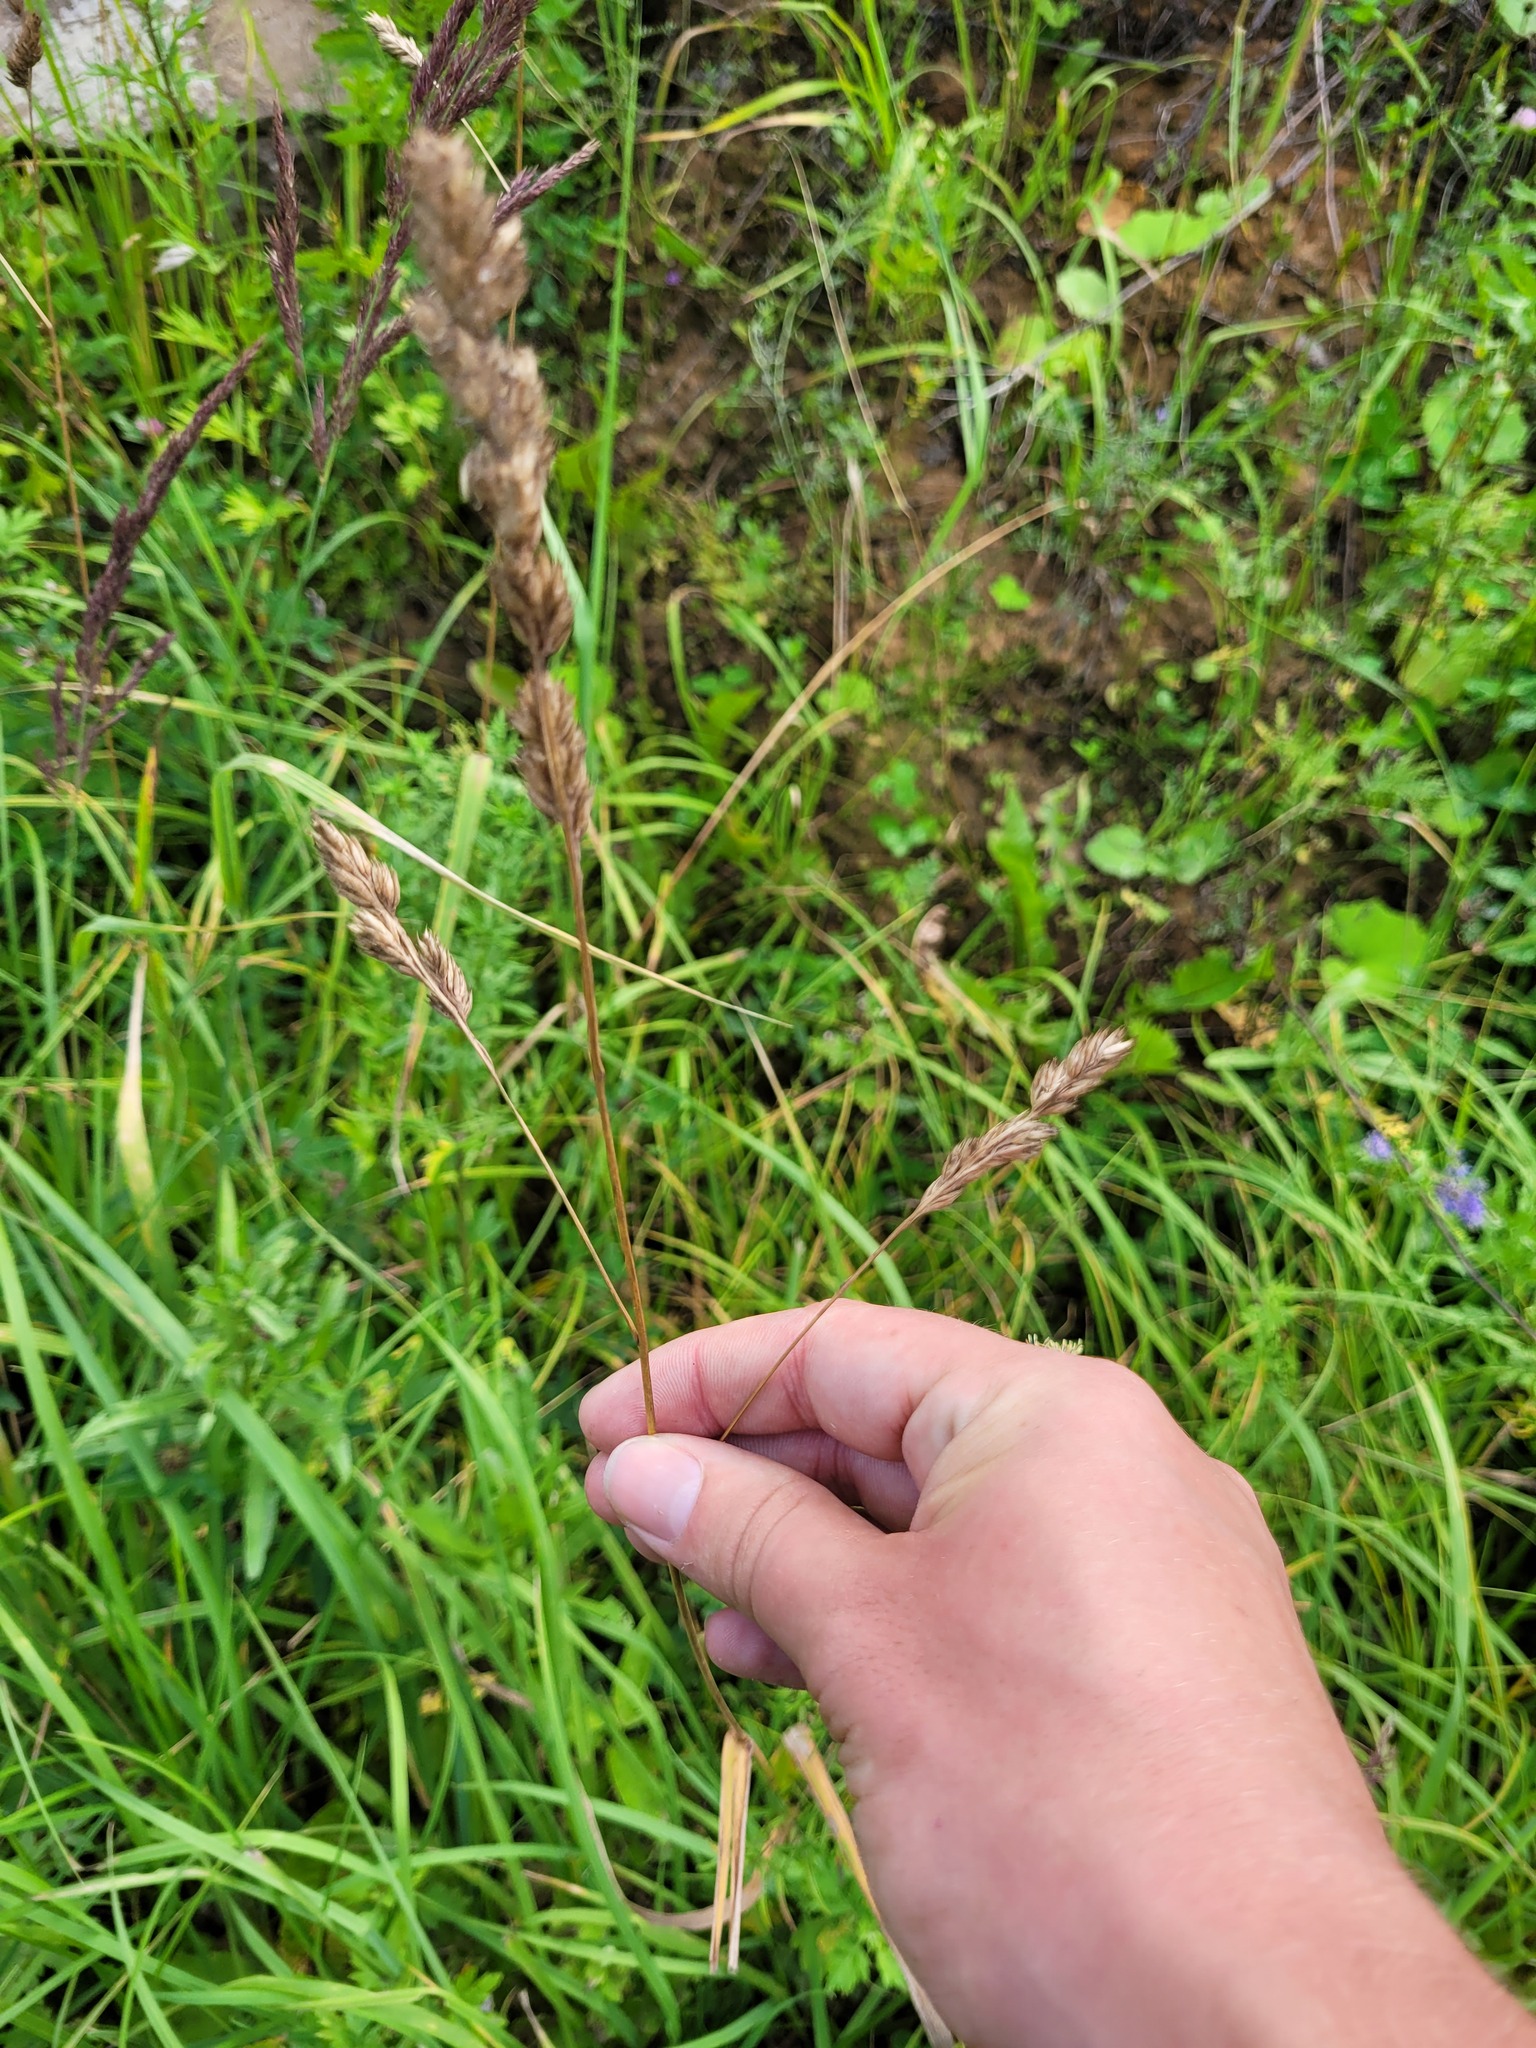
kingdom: Plantae
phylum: Tracheophyta
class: Liliopsida
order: Poales
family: Poaceae
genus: Dactylis
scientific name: Dactylis glomerata
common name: Orchardgrass
